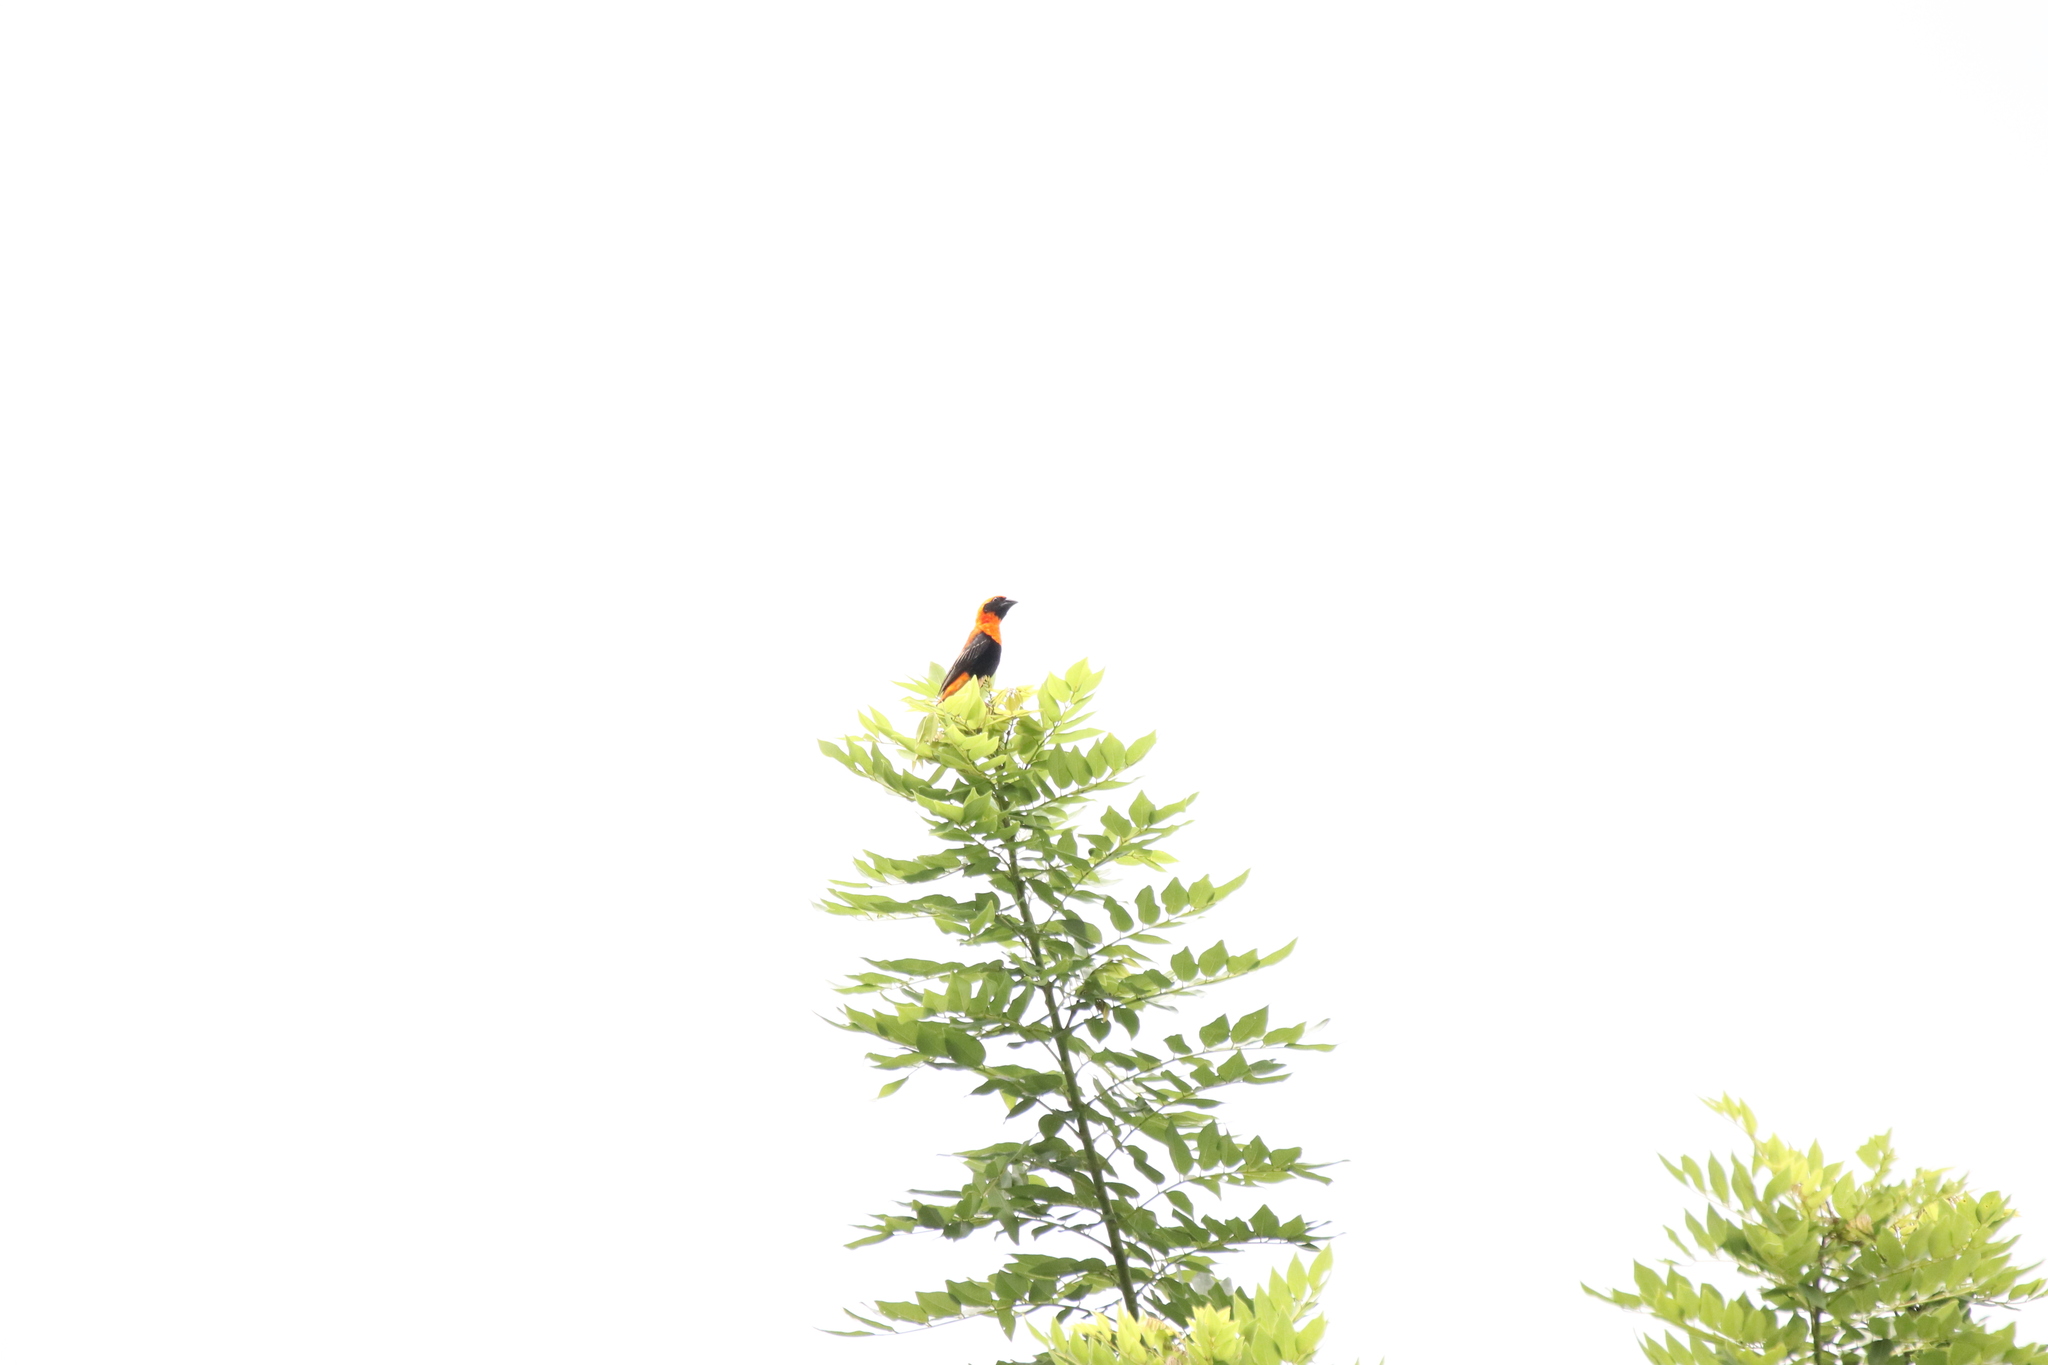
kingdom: Animalia
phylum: Chordata
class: Aves
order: Passeriformes
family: Ploceidae
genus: Euplectes
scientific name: Euplectes hordeaceus
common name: Black-winged red bishop
